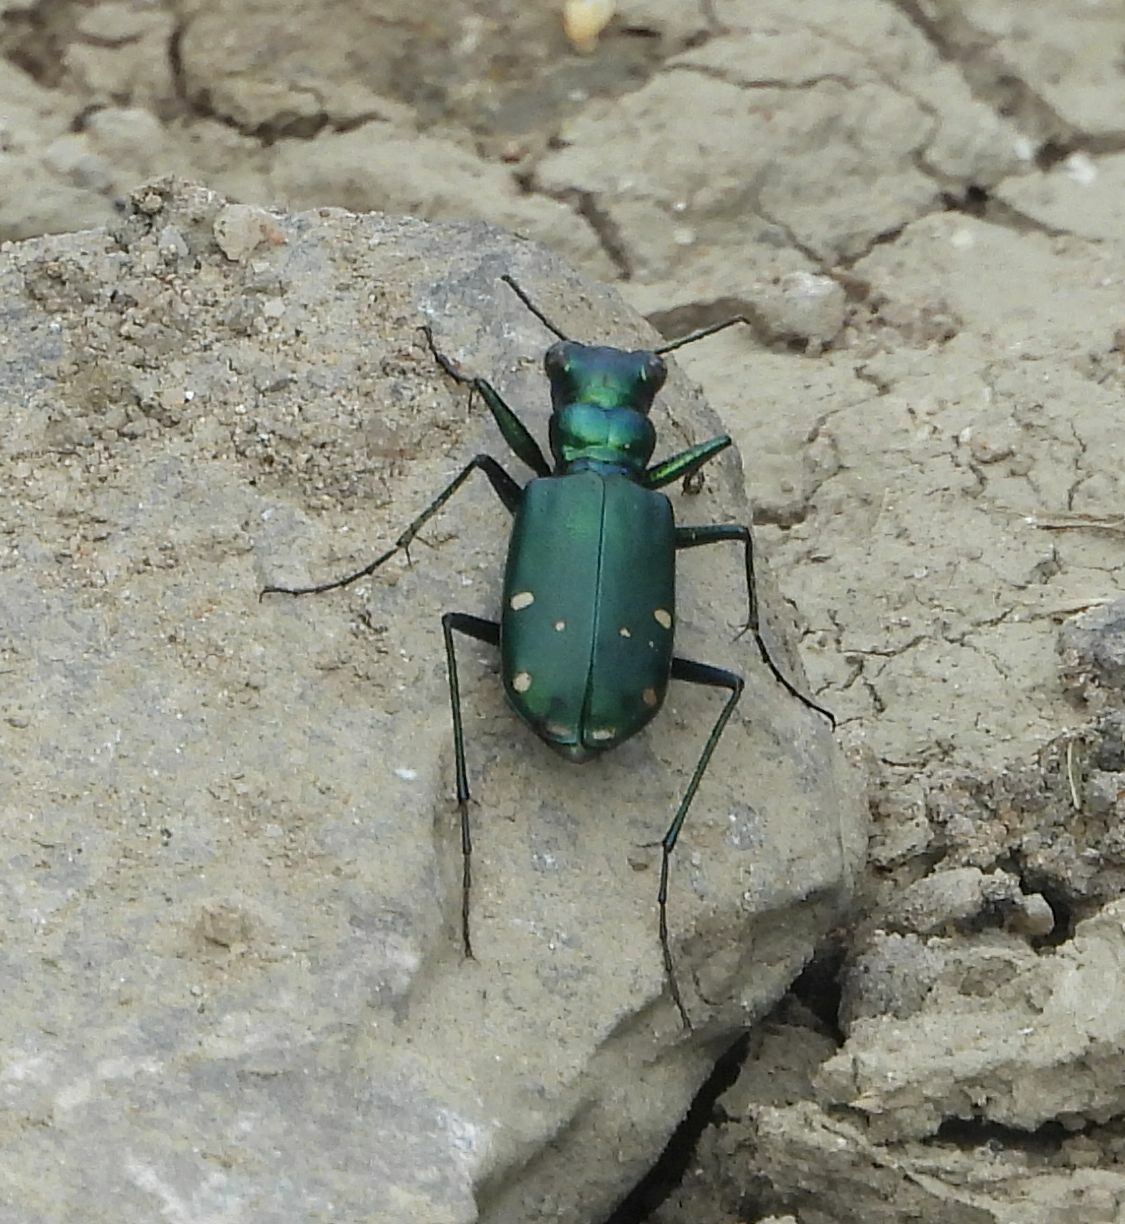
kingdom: Animalia
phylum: Arthropoda
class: Insecta
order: Coleoptera
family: Carabidae
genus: Cicindela
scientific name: Cicindela sexguttata
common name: Six-spotted tiger beetle
